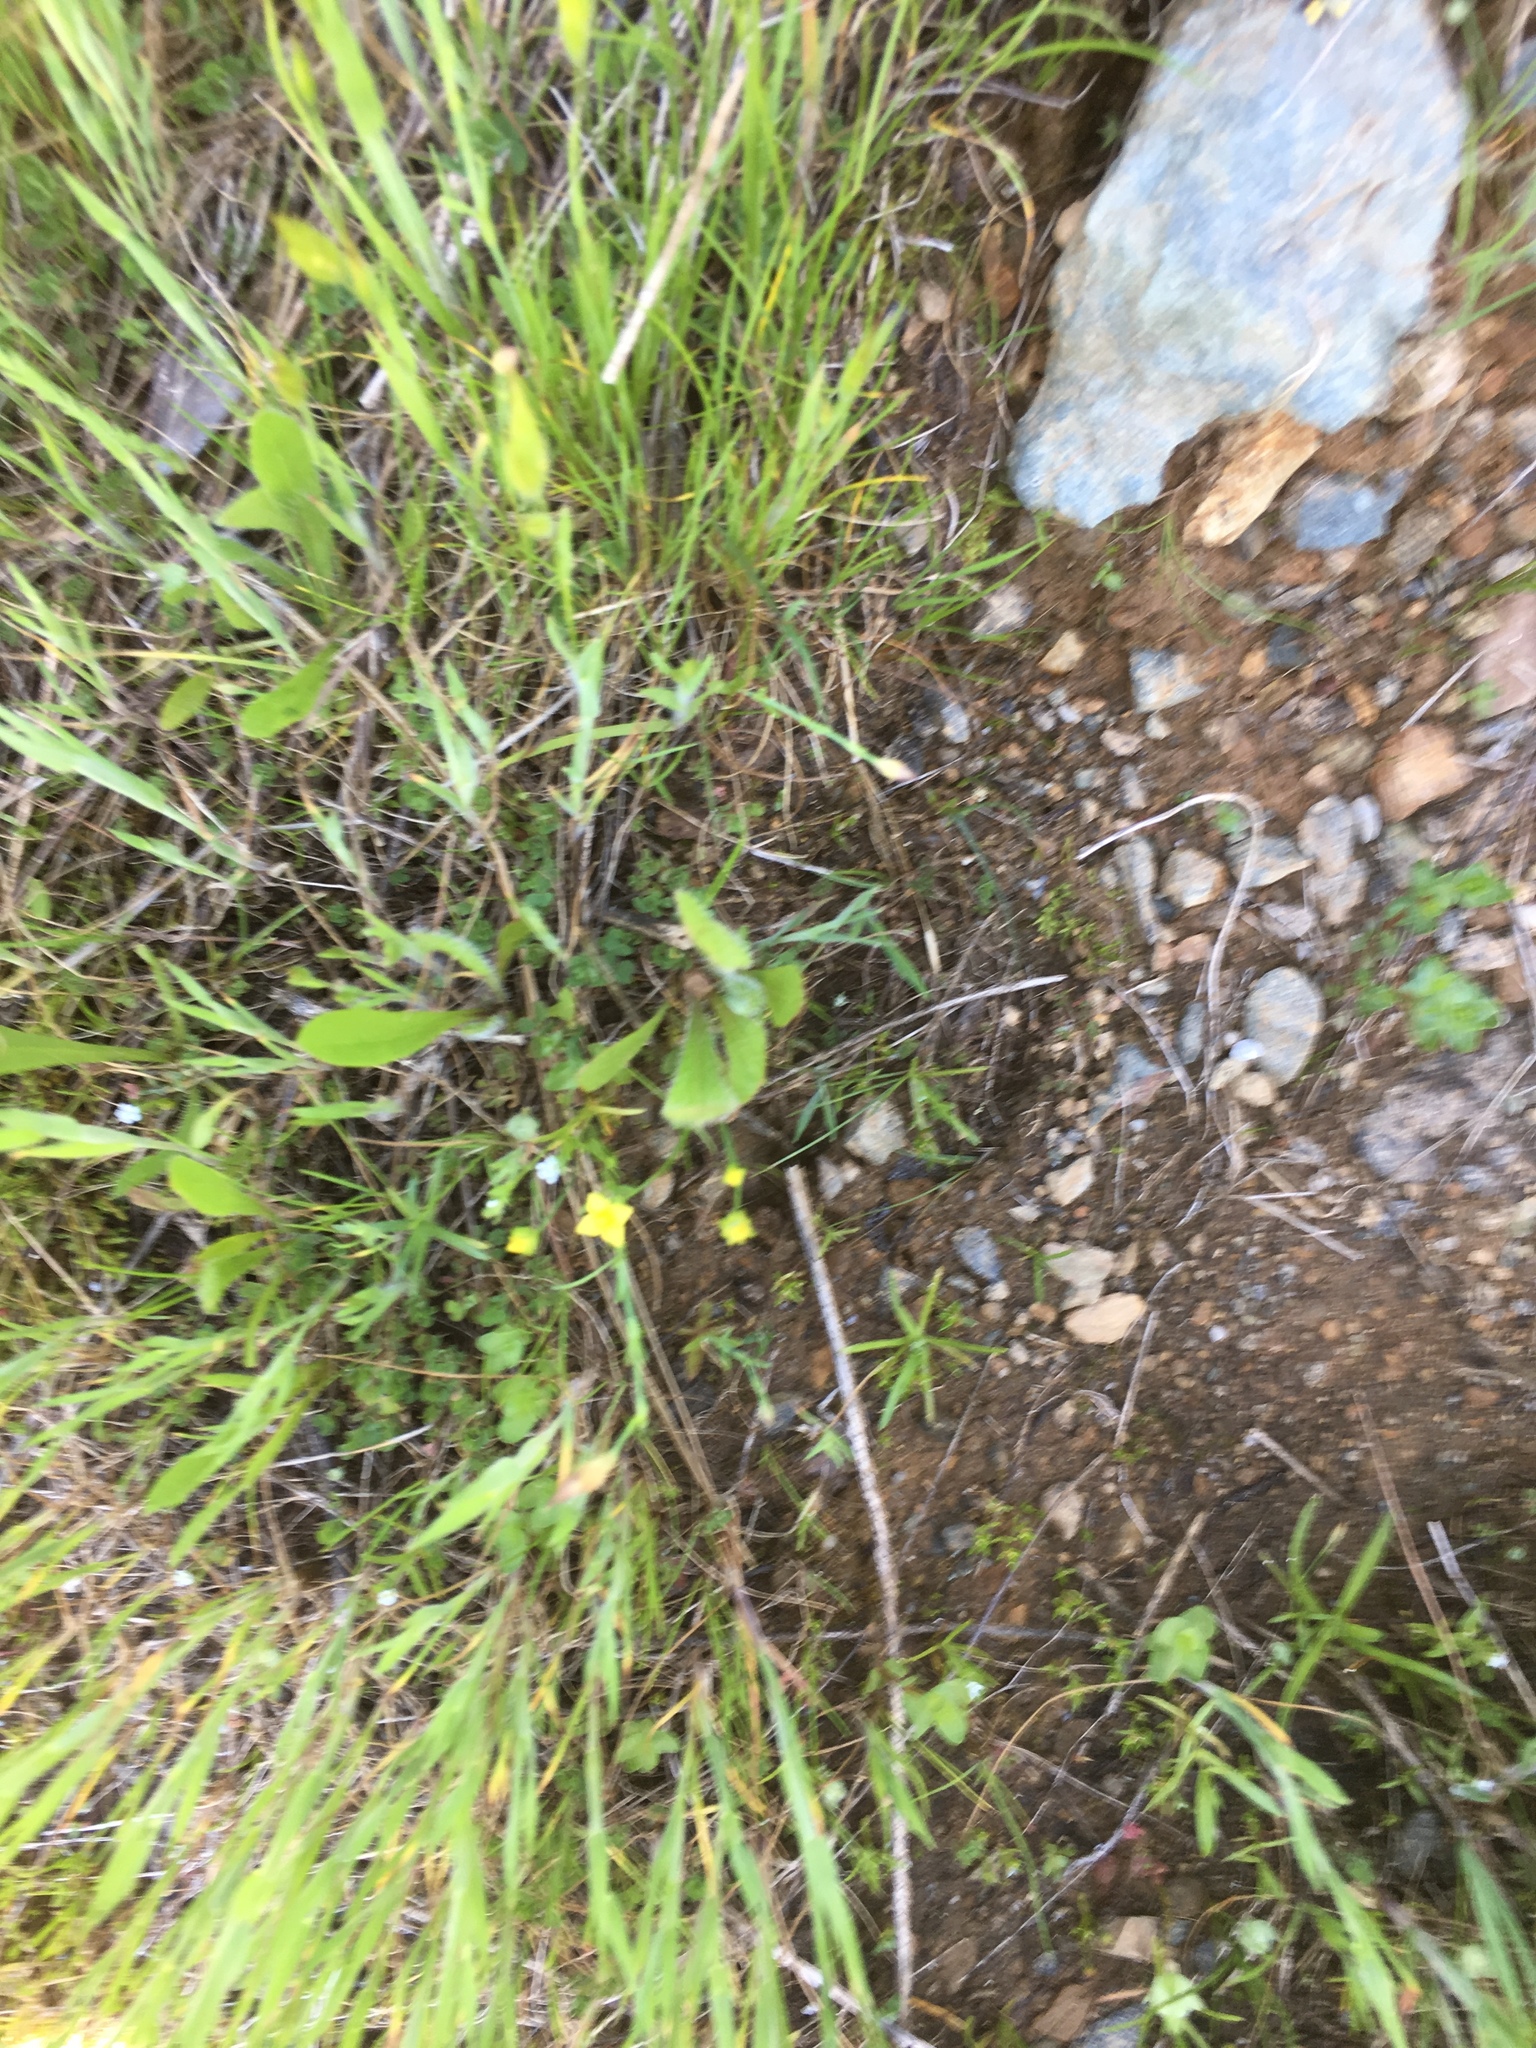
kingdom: Plantae
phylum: Tracheophyta
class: Magnoliopsida
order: Gentianales
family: Gentianaceae
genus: Microcala
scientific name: Microcala quadrangularis
